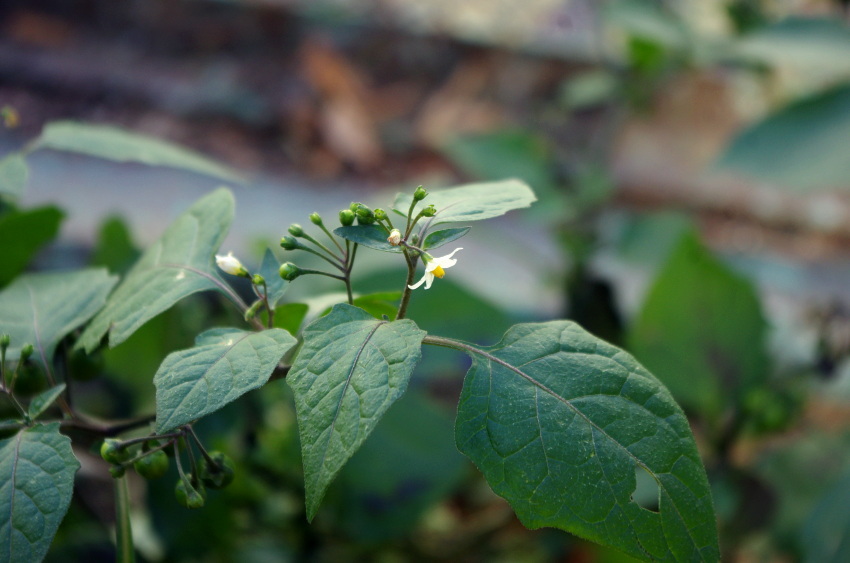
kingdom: Plantae
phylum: Tracheophyta
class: Magnoliopsida
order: Solanales
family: Solanaceae
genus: Solanum
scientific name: Solanum nigrum
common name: Black nightshade
